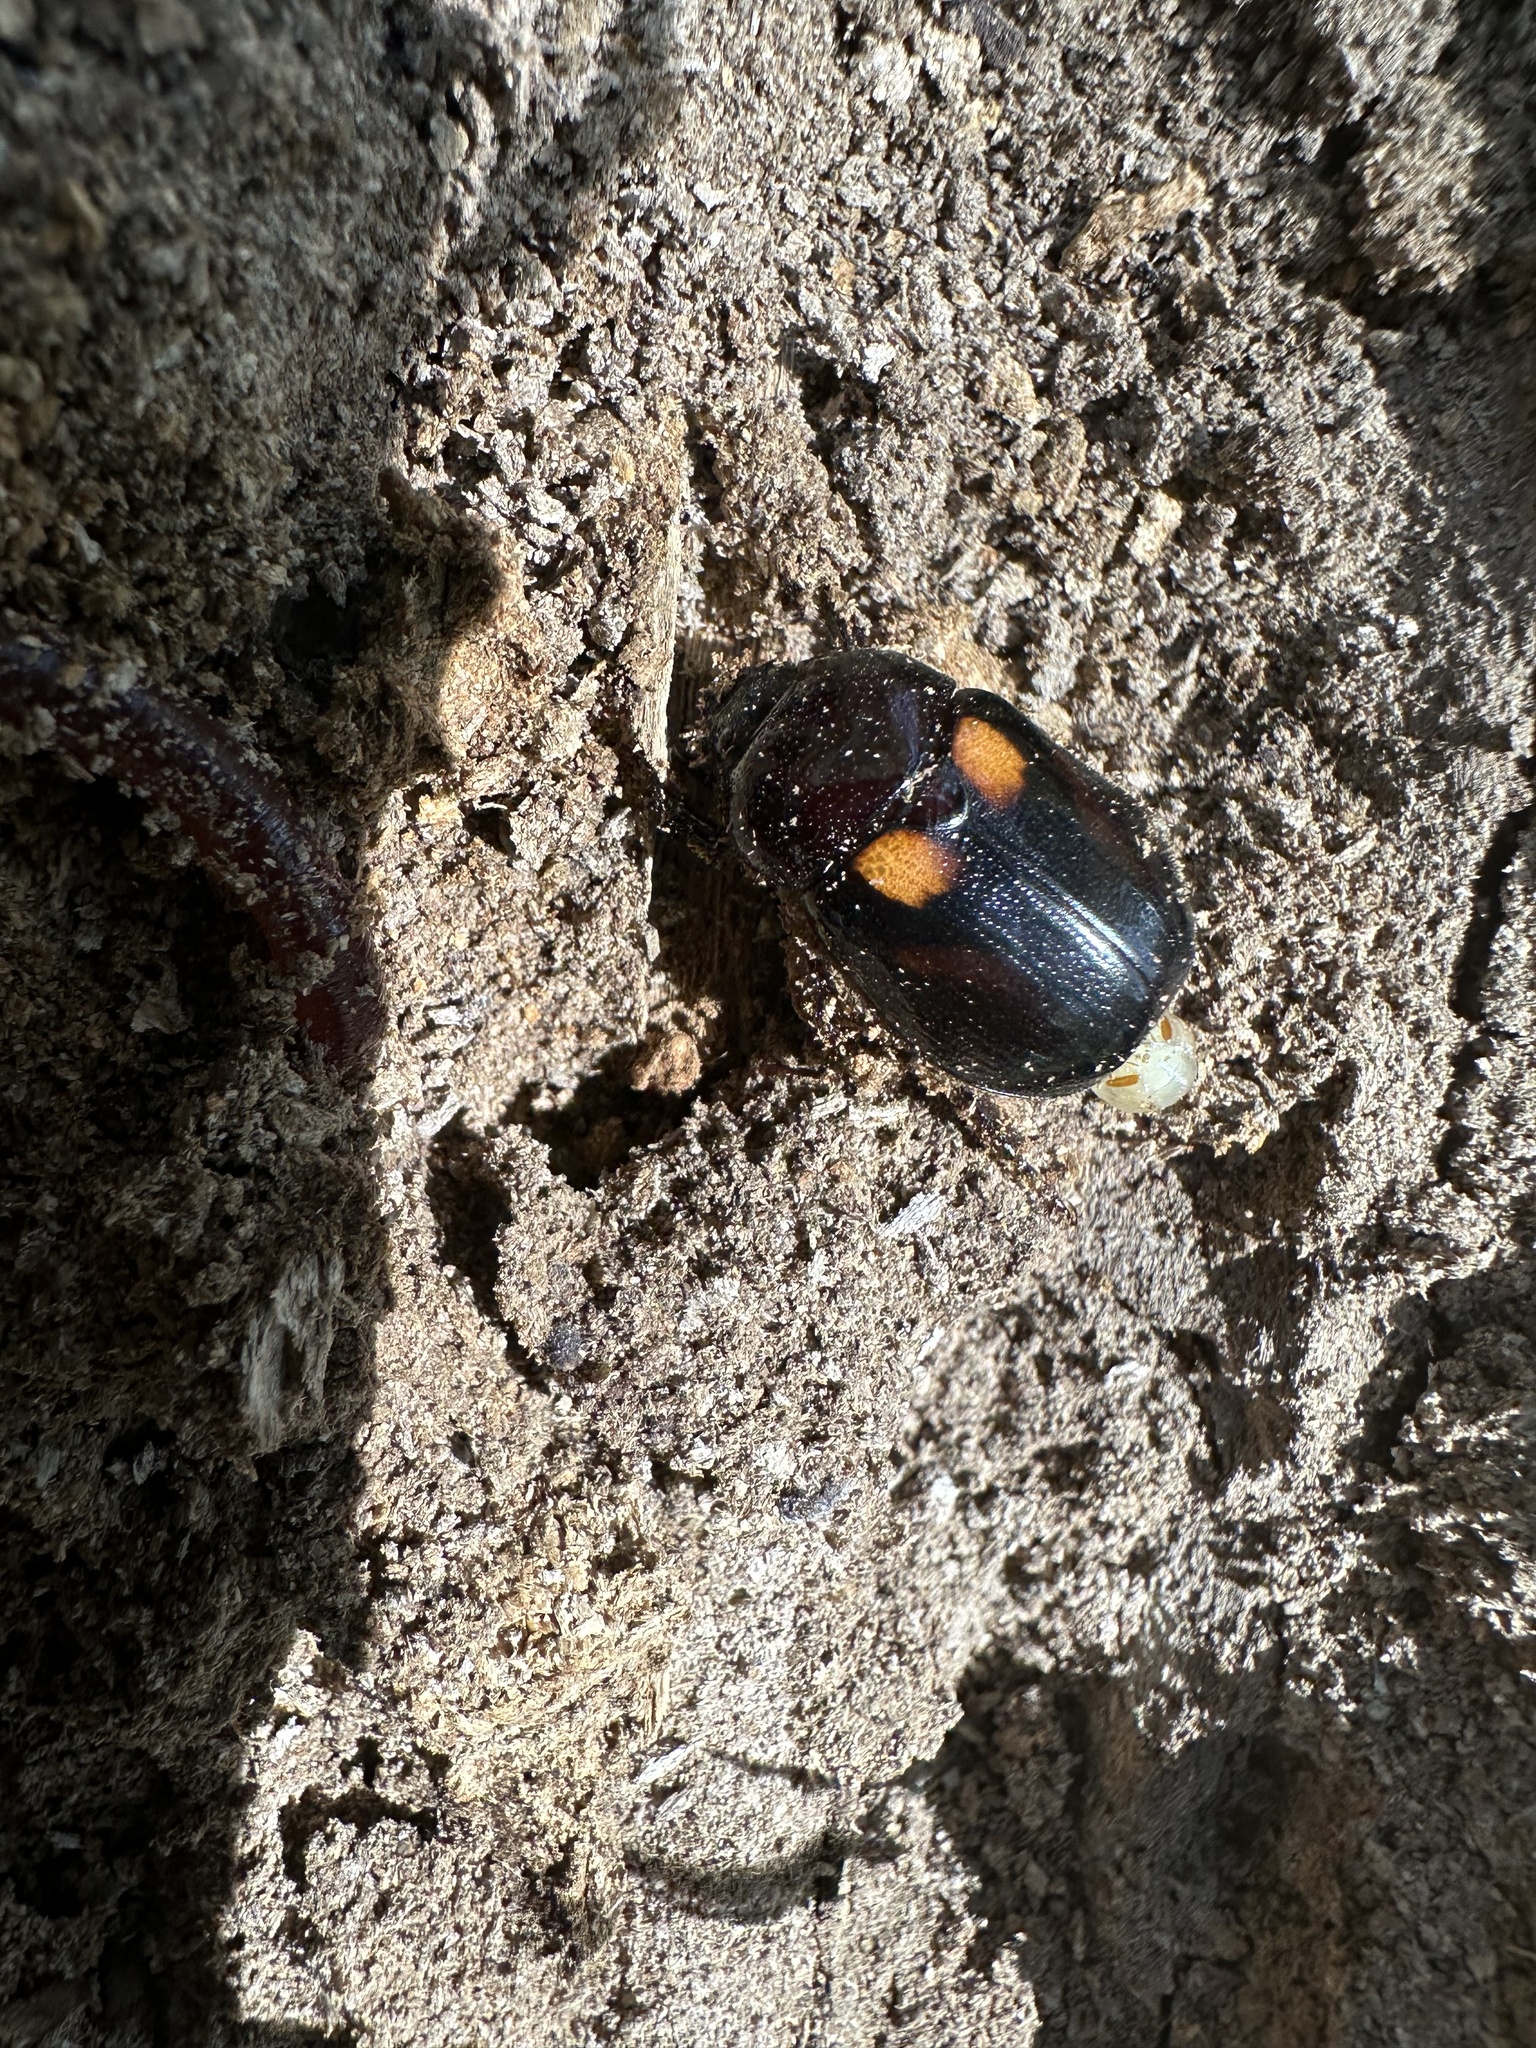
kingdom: Animalia
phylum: Arthropoda
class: Insecta
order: Coleoptera
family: Scarabaeidae
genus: Oryctomorphus
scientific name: Oryctomorphus bimaculatus
